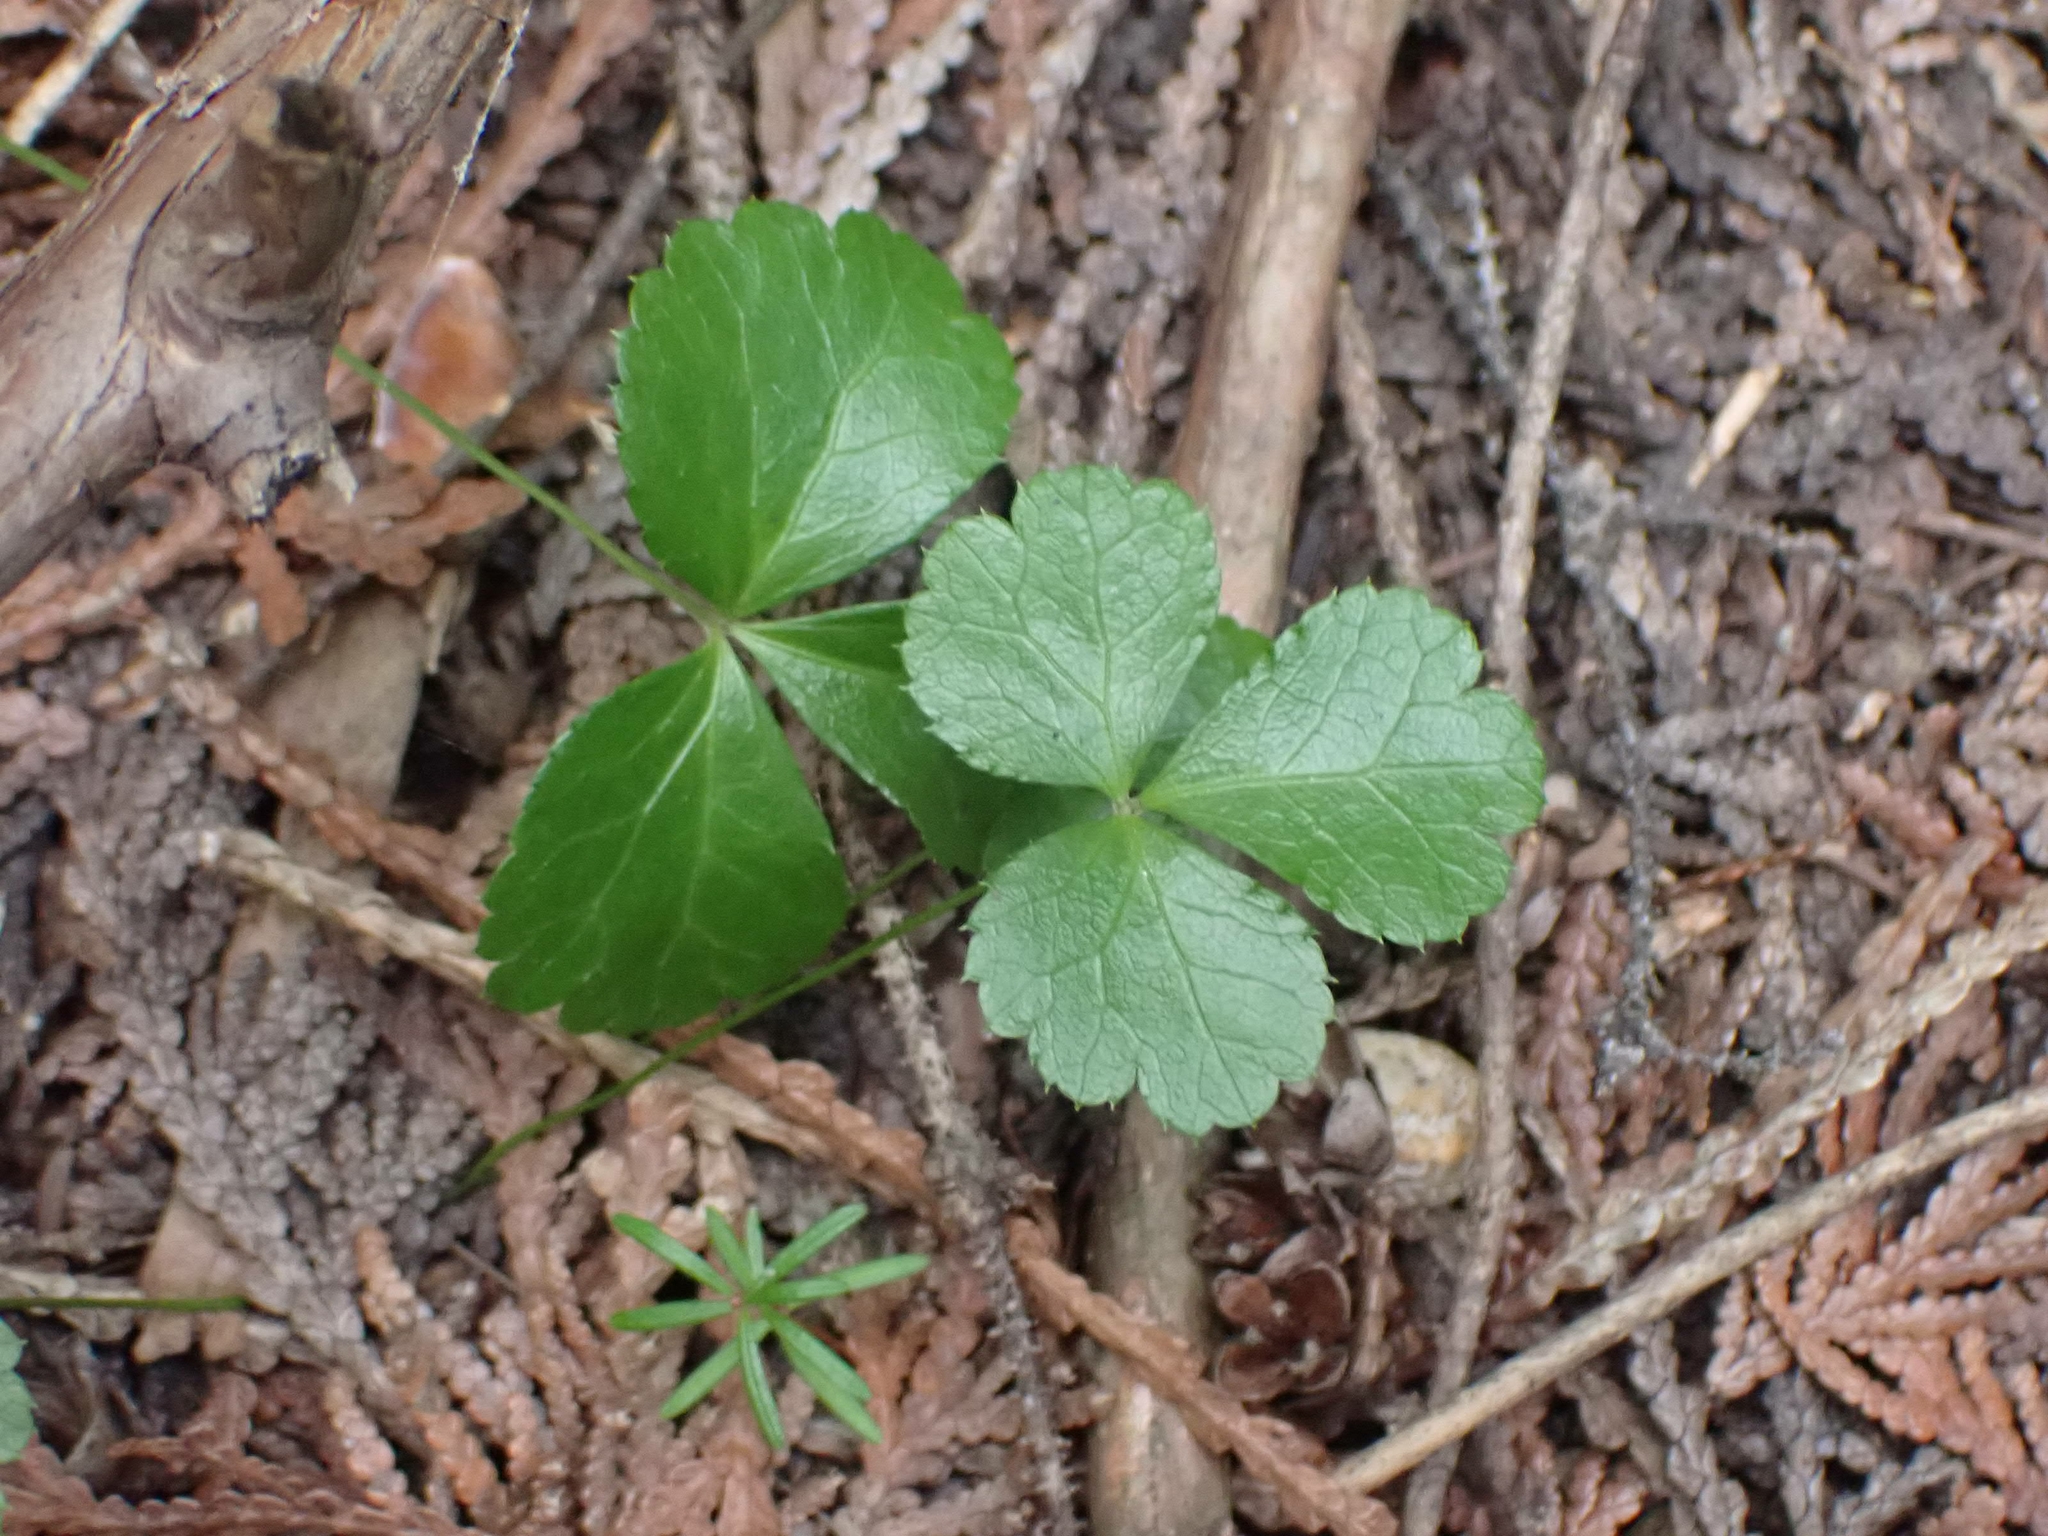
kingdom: Plantae
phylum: Tracheophyta
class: Magnoliopsida
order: Ranunculales
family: Ranunculaceae
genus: Coptis
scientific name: Coptis trifolia
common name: Canker-root
